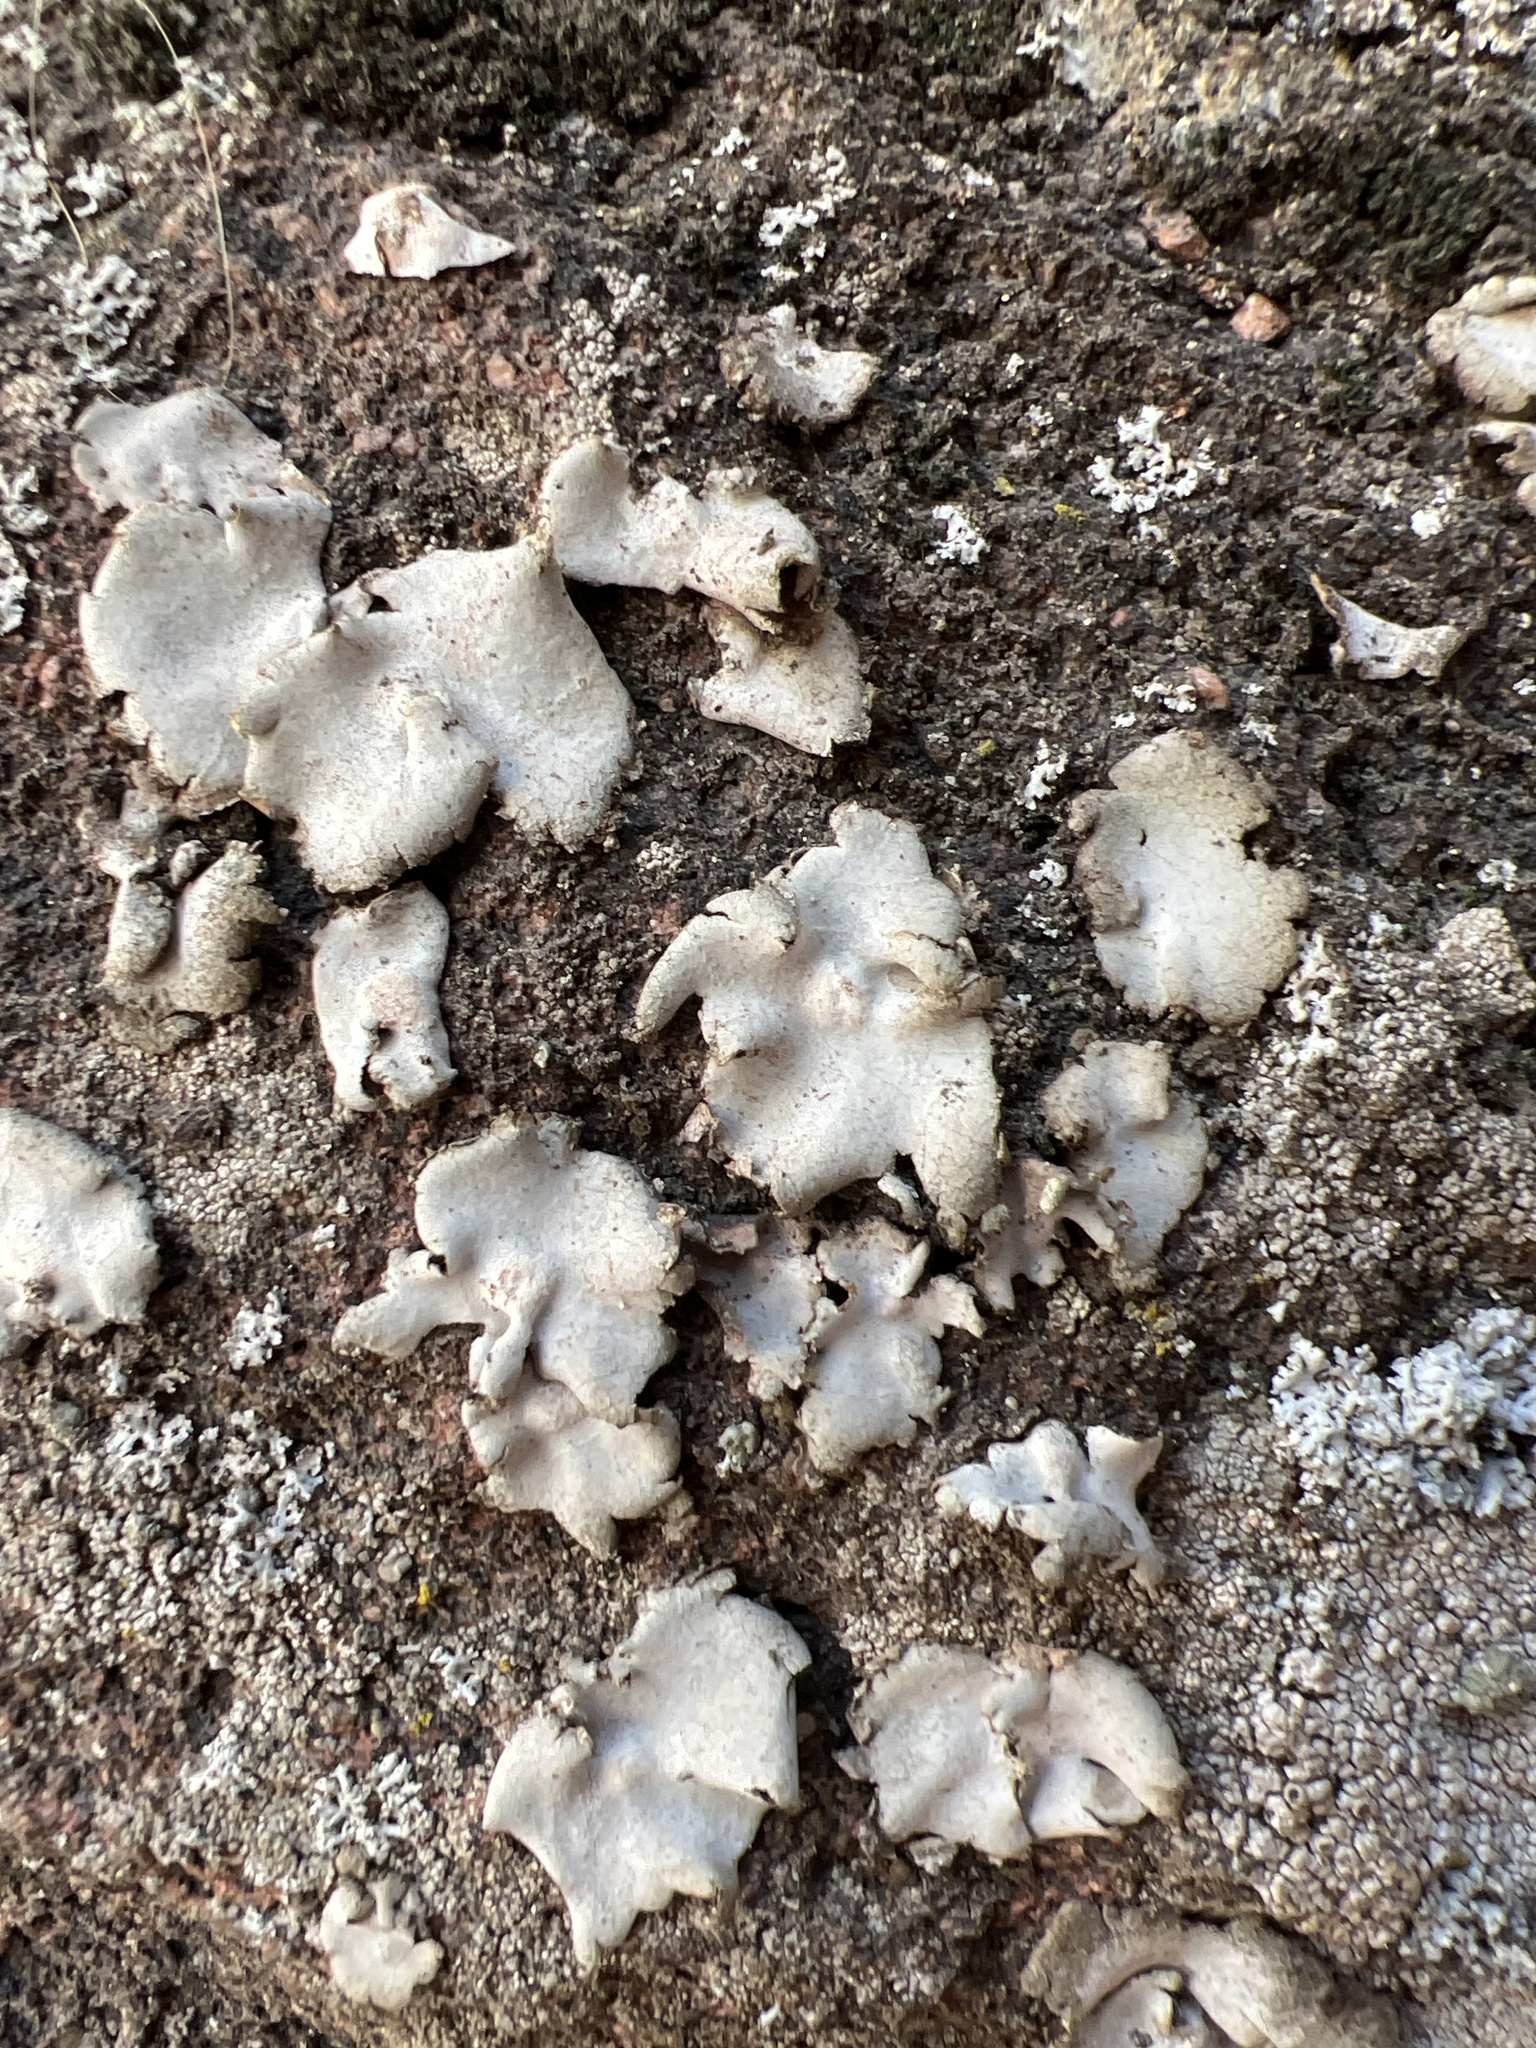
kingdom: Fungi
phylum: Ascomycota
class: Lecanoromycetes
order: Umbilicariales
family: Umbilicariaceae
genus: Umbilicaria
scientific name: Umbilicaria americana
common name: Frosted rock tripe
